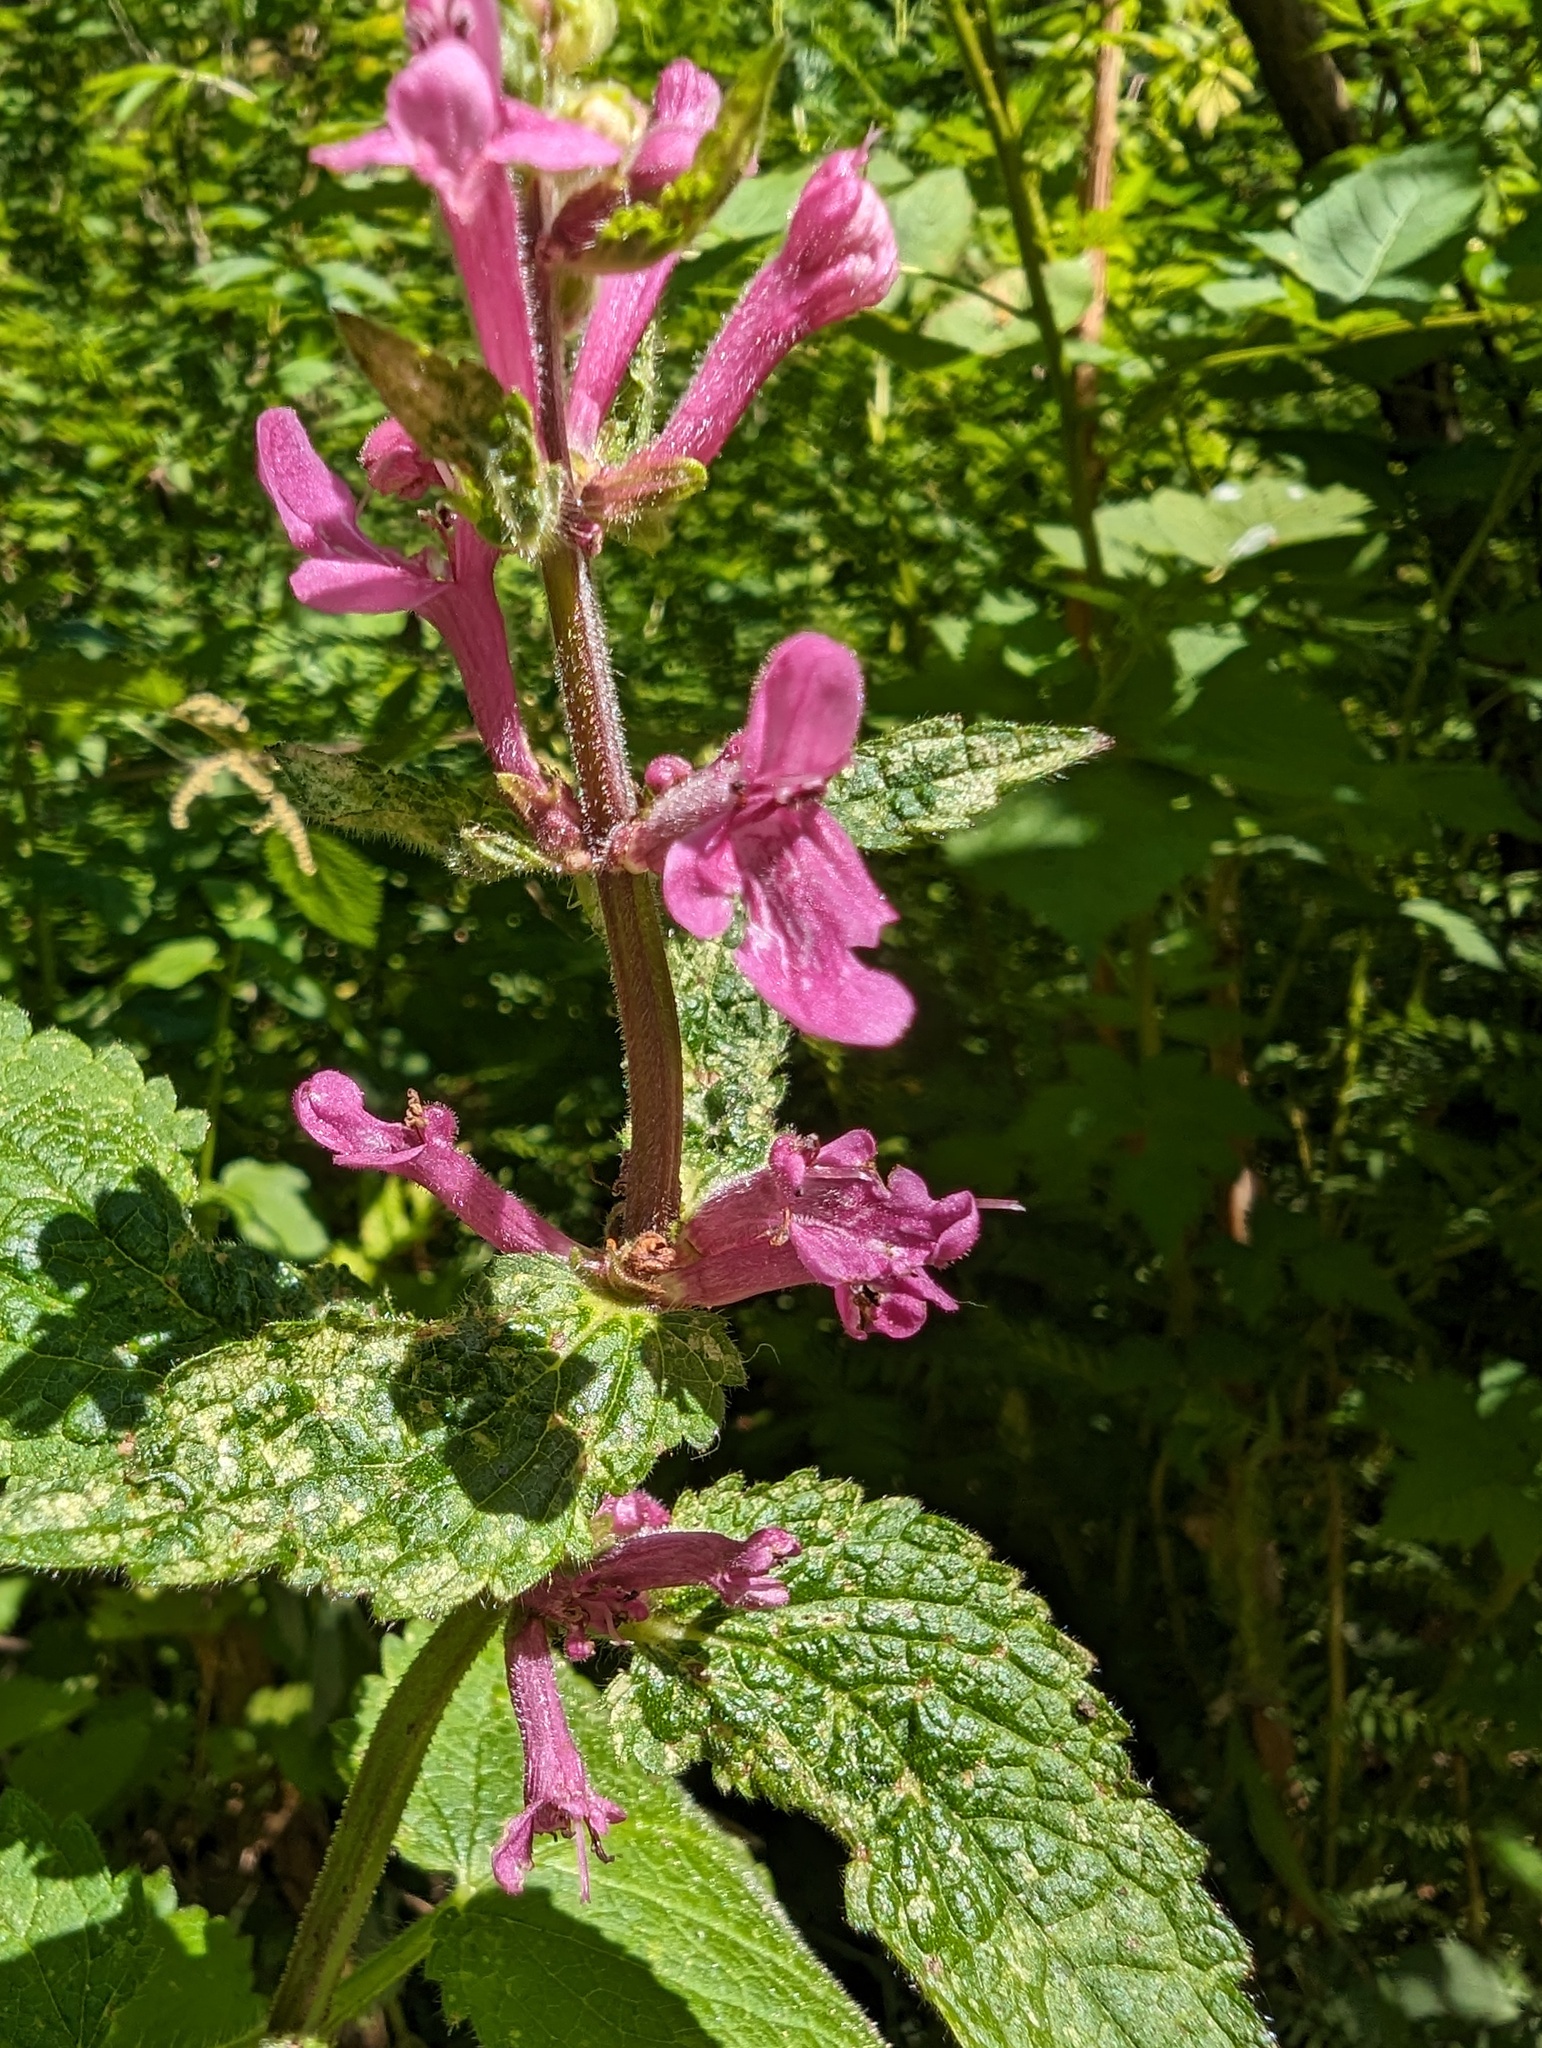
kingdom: Plantae
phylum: Tracheophyta
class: Magnoliopsida
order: Lamiales
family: Lamiaceae
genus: Stachys
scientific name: Stachys chamissonis
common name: Coastal hedge-nettle
